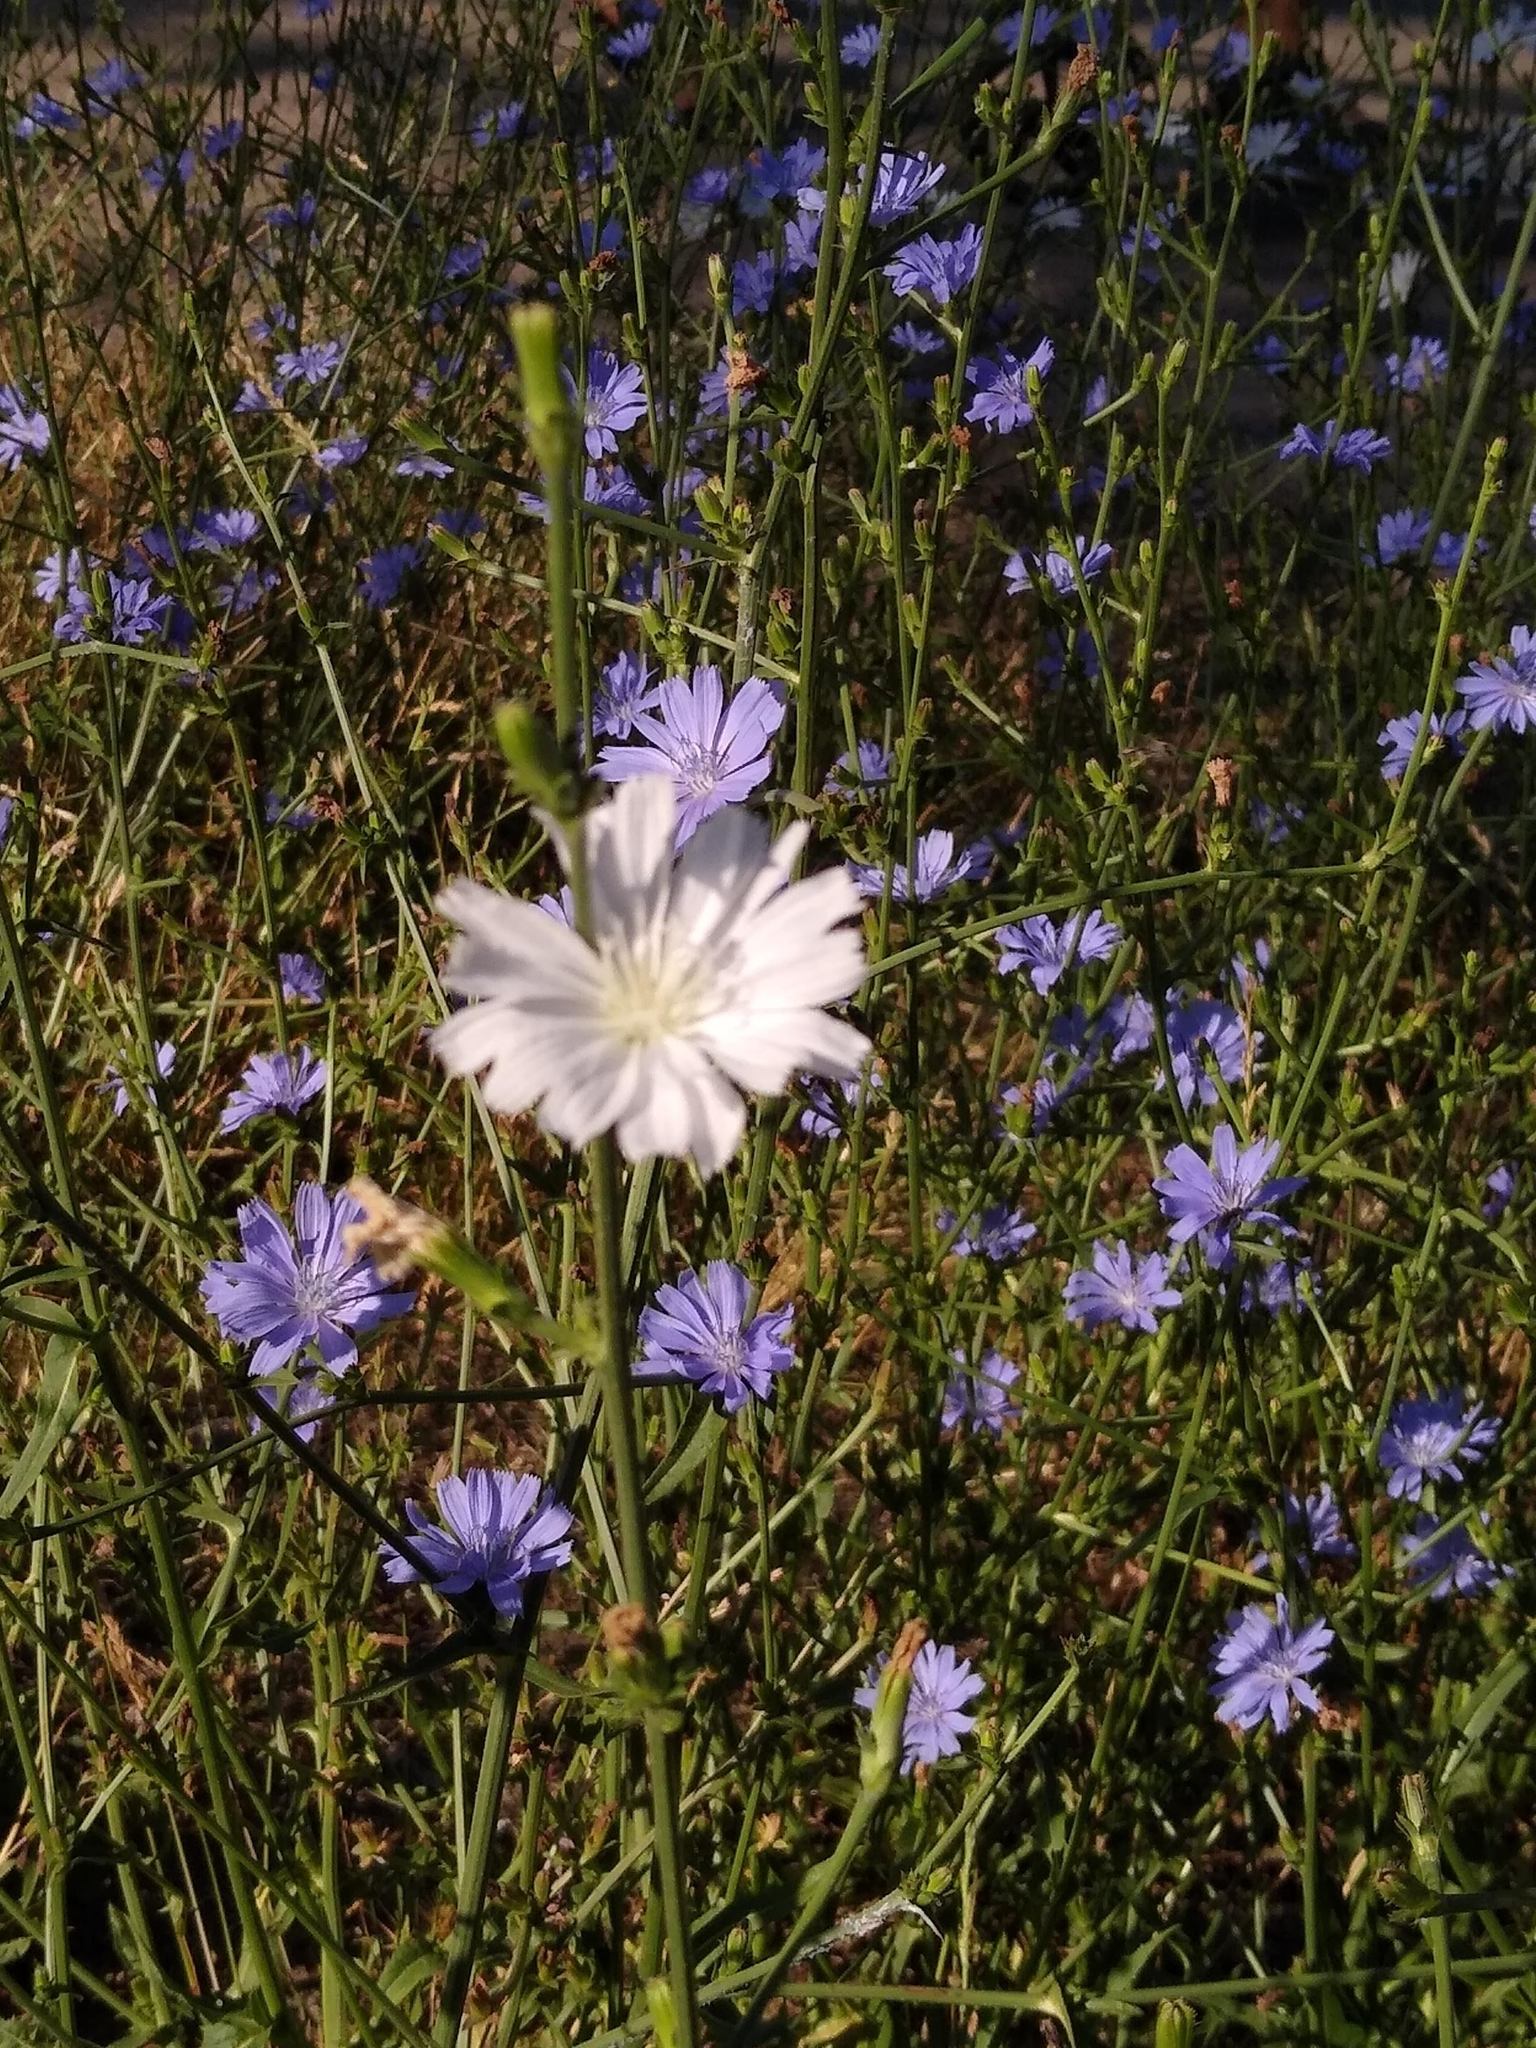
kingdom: Plantae
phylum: Tracheophyta
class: Magnoliopsida
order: Asterales
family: Asteraceae
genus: Cichorium
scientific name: Cichorium intybus
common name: Chicory
